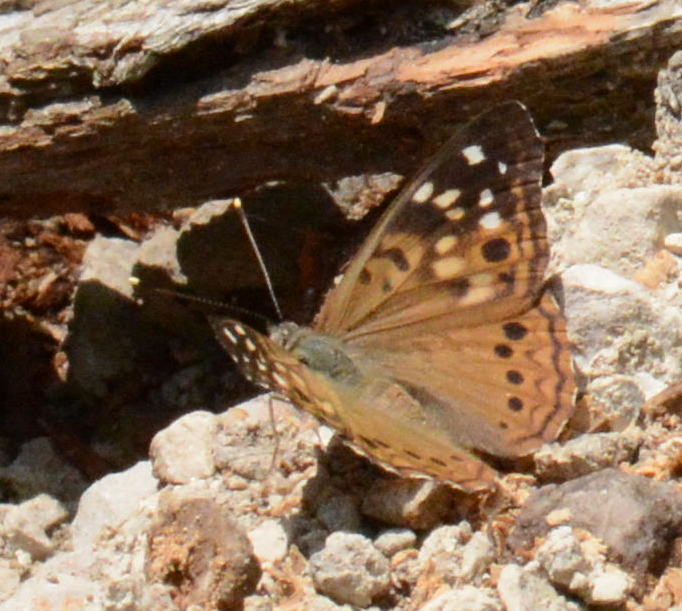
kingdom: Animalia
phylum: Arthropoda
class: Insecta
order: Lepidoptera
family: Nymphalidae
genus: Asterocampa
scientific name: Asterocampa celtis
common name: Hackberry emperor
